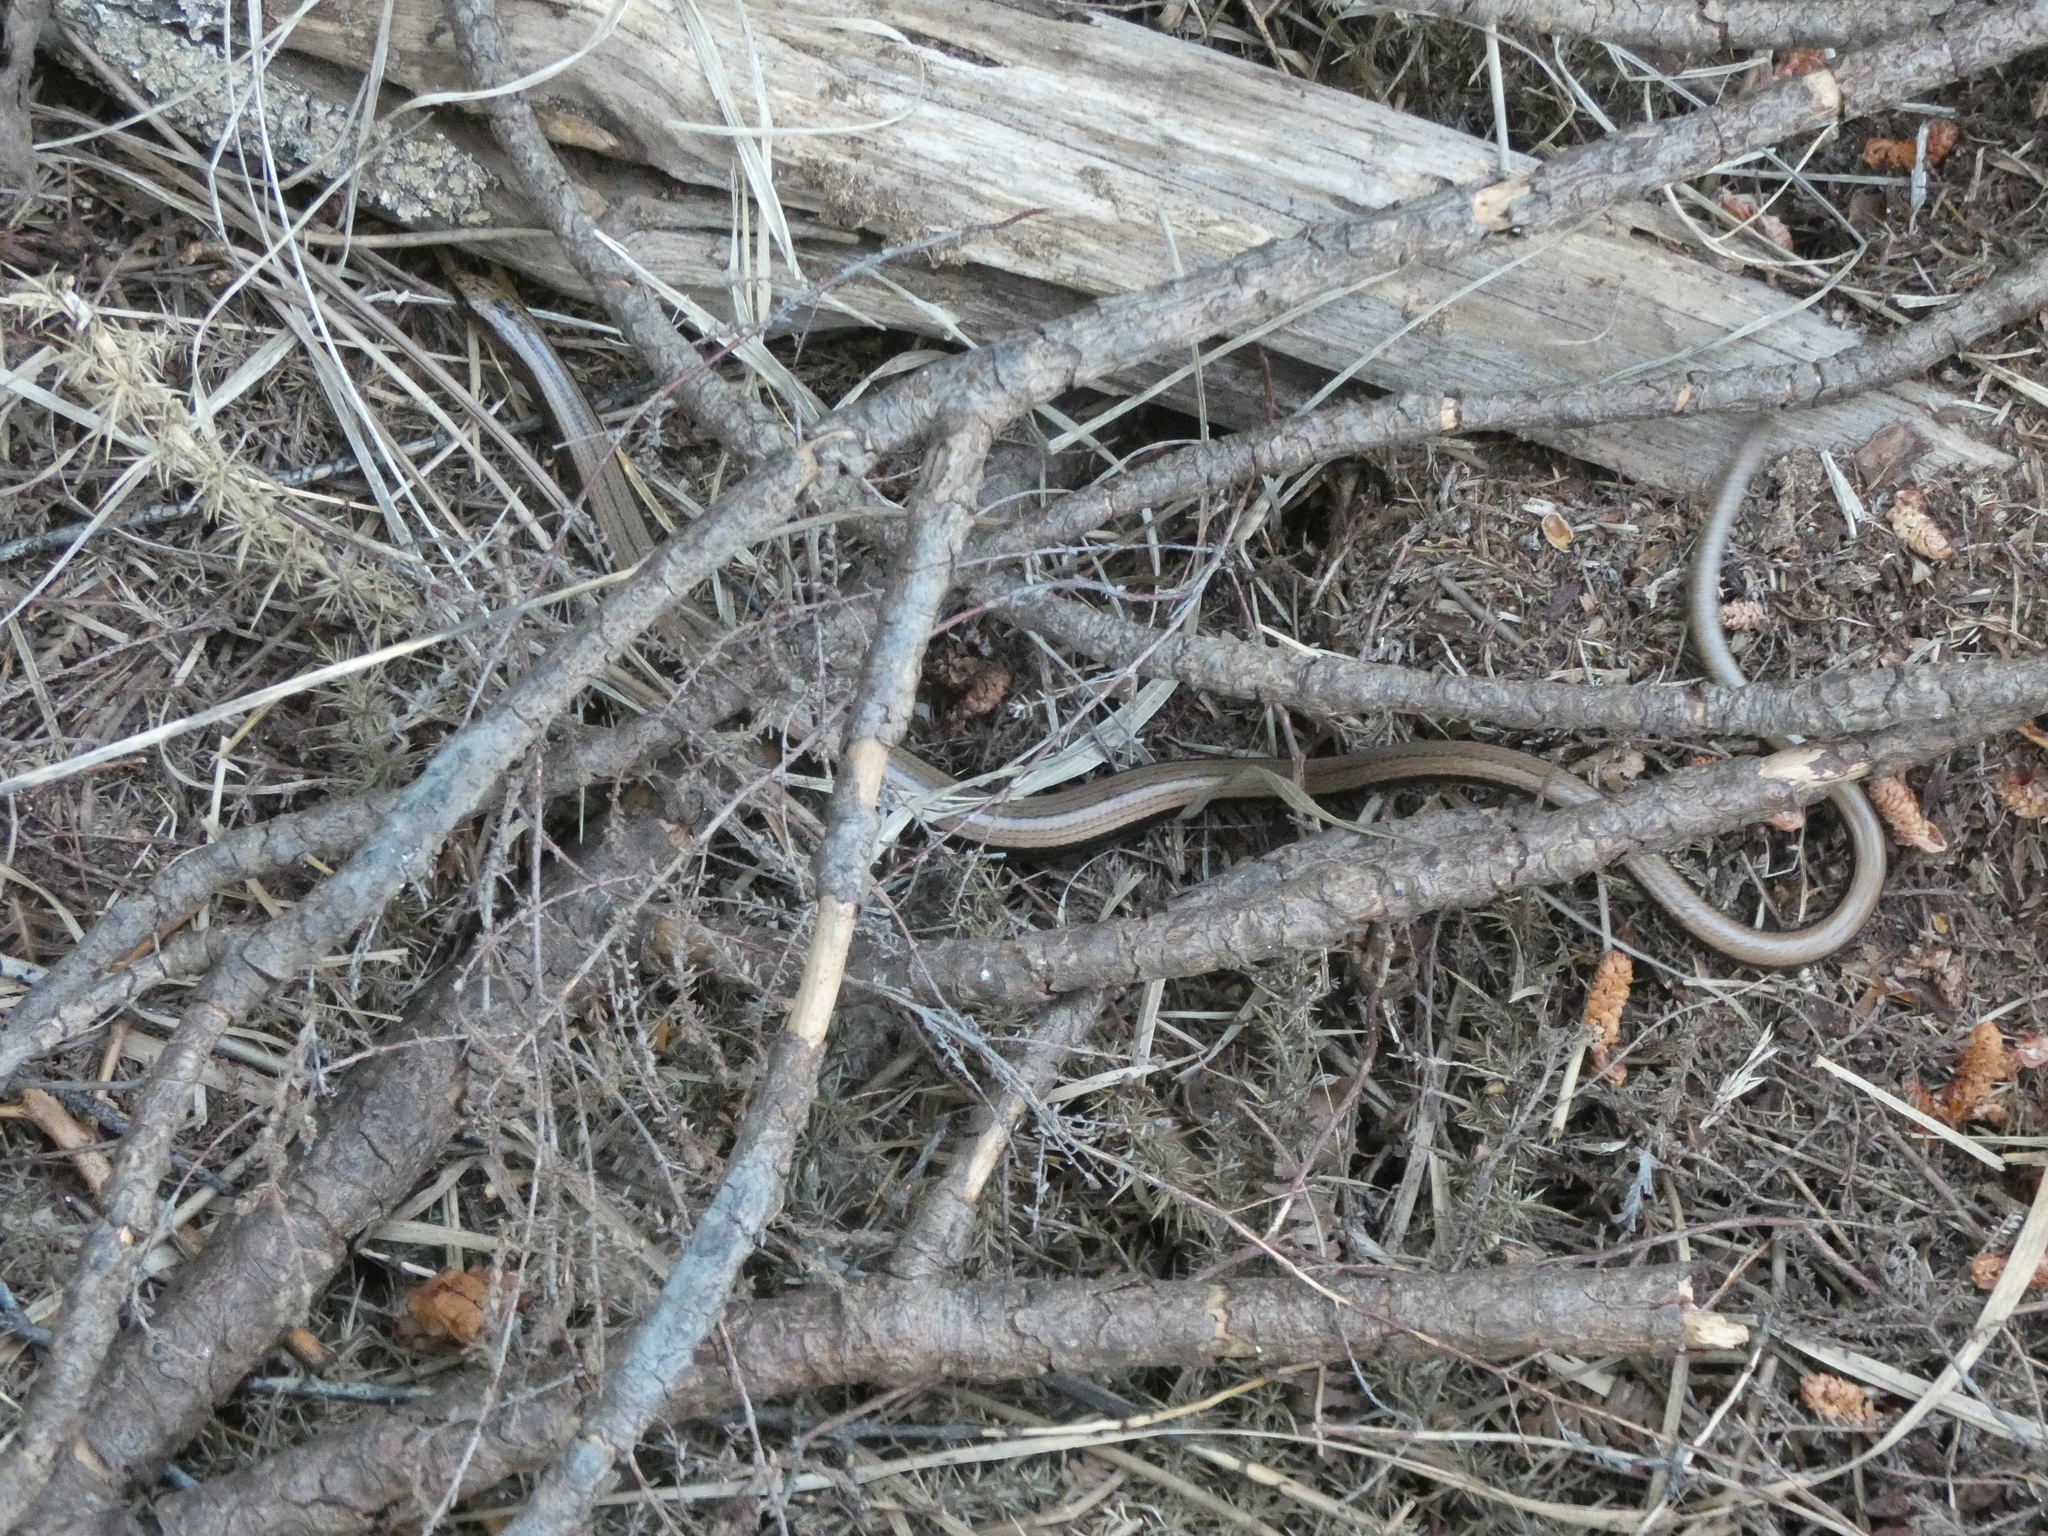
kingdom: Animalia
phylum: Chordata
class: Squamata
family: Anguidae
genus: Anguis
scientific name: Anguis fragilis
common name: Slow worm
